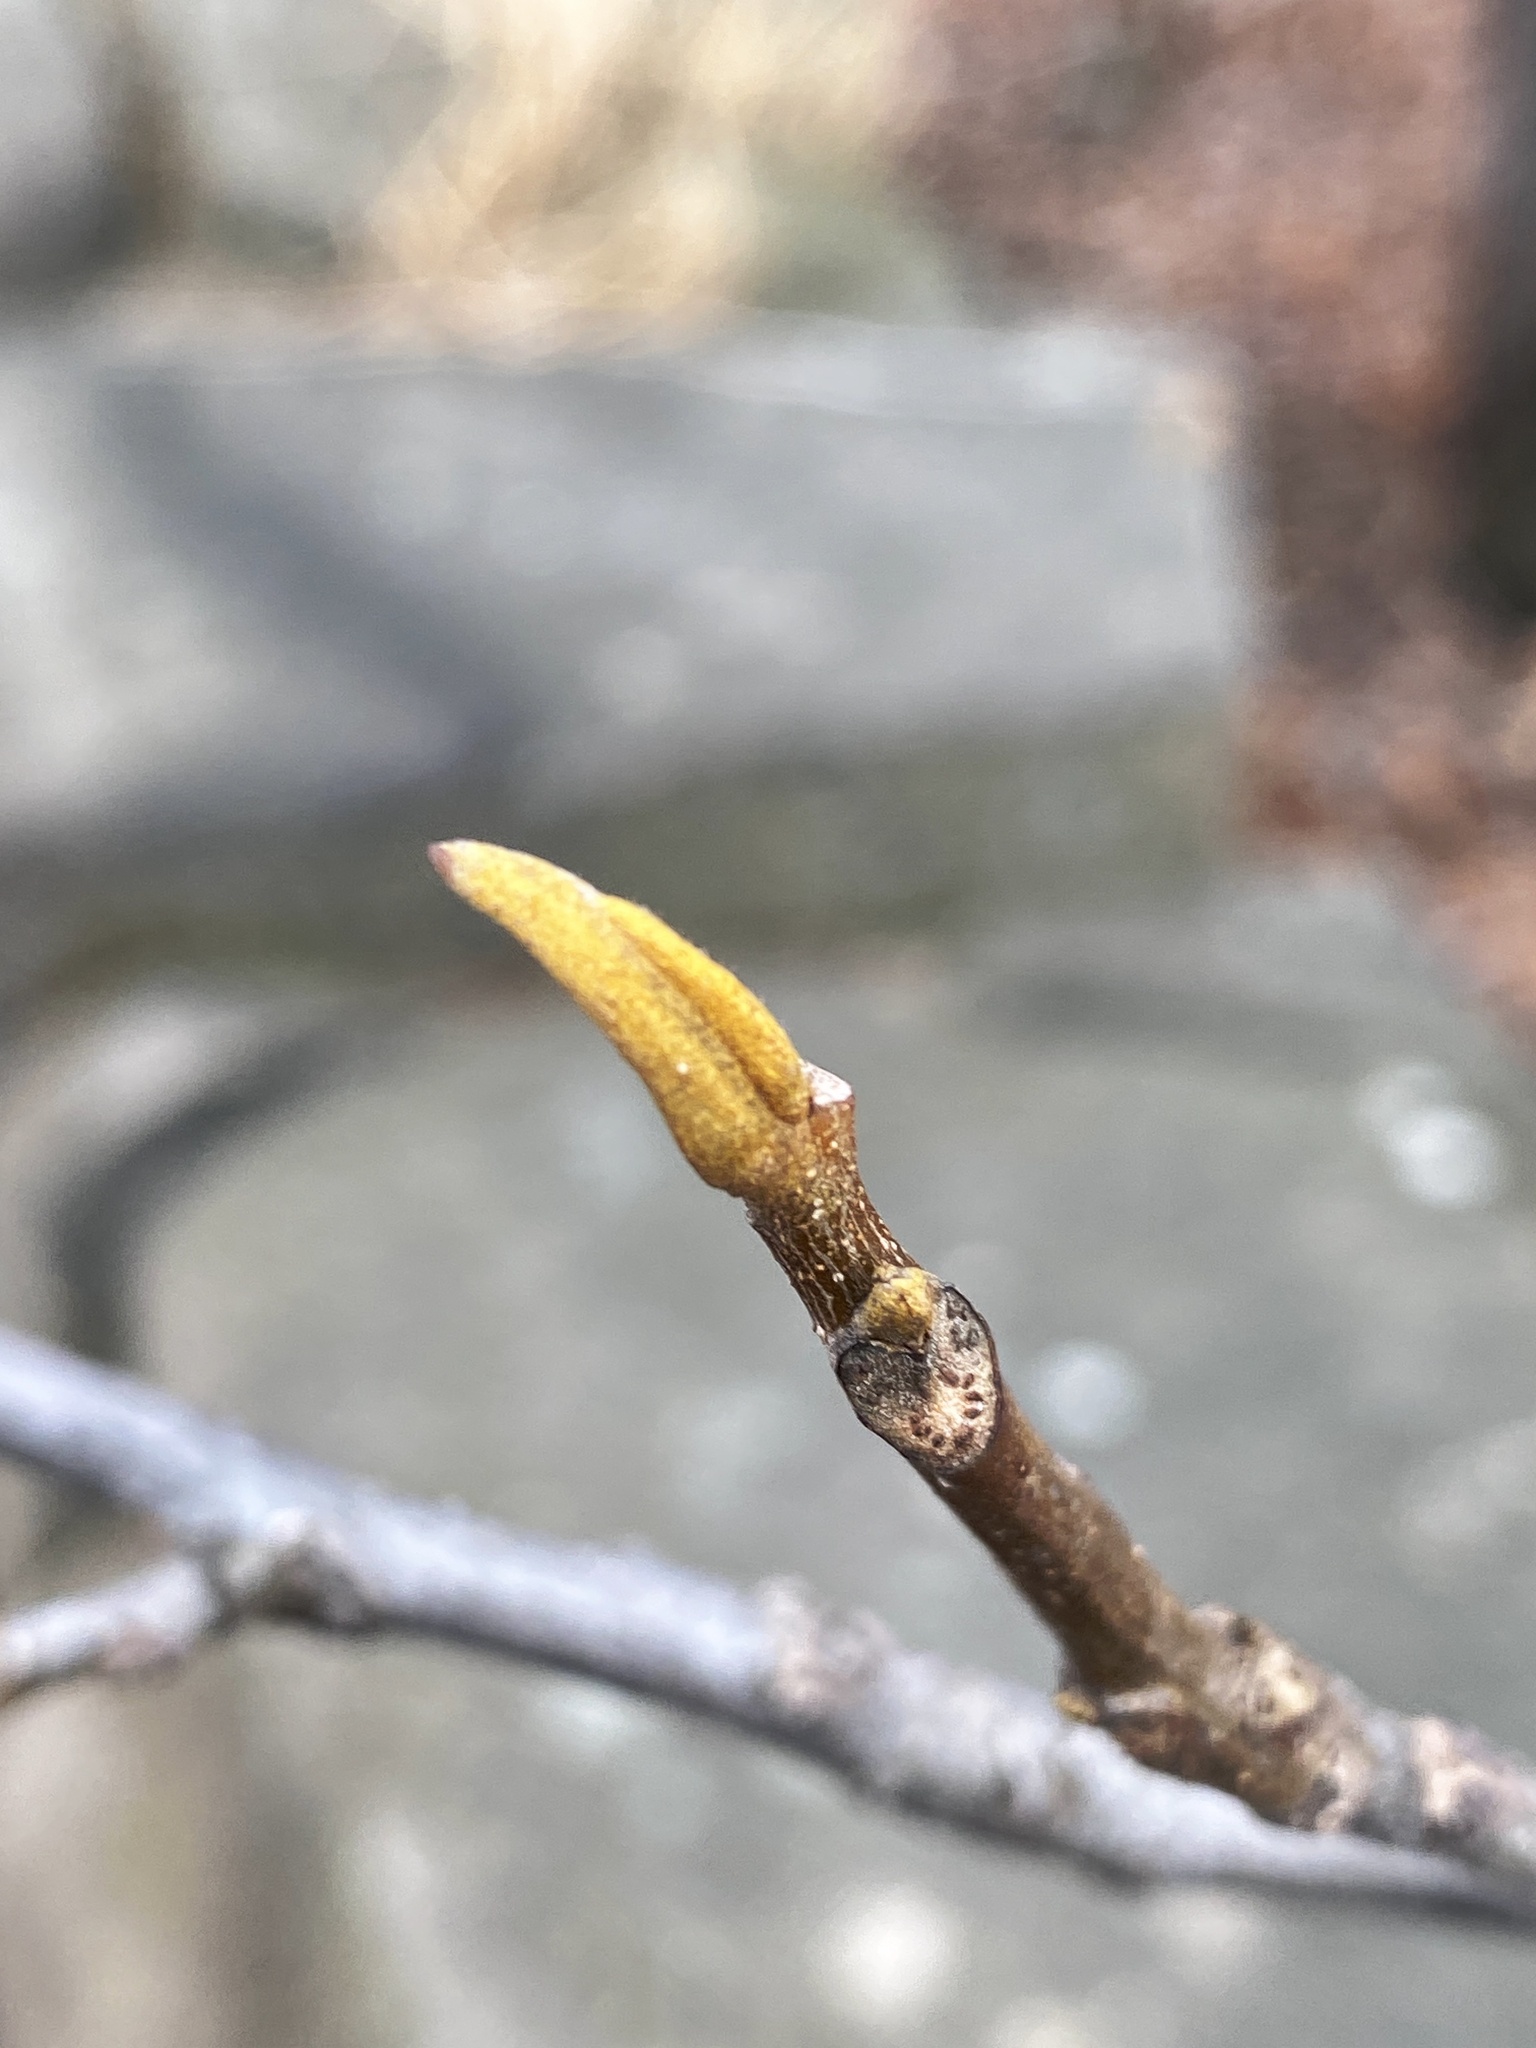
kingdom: Plantae
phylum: Tracheophyta
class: Magnoliopsida
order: Fagales
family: Juglandaceae
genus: Carya
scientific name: Carya cordiformis
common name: Bitternut hickory
